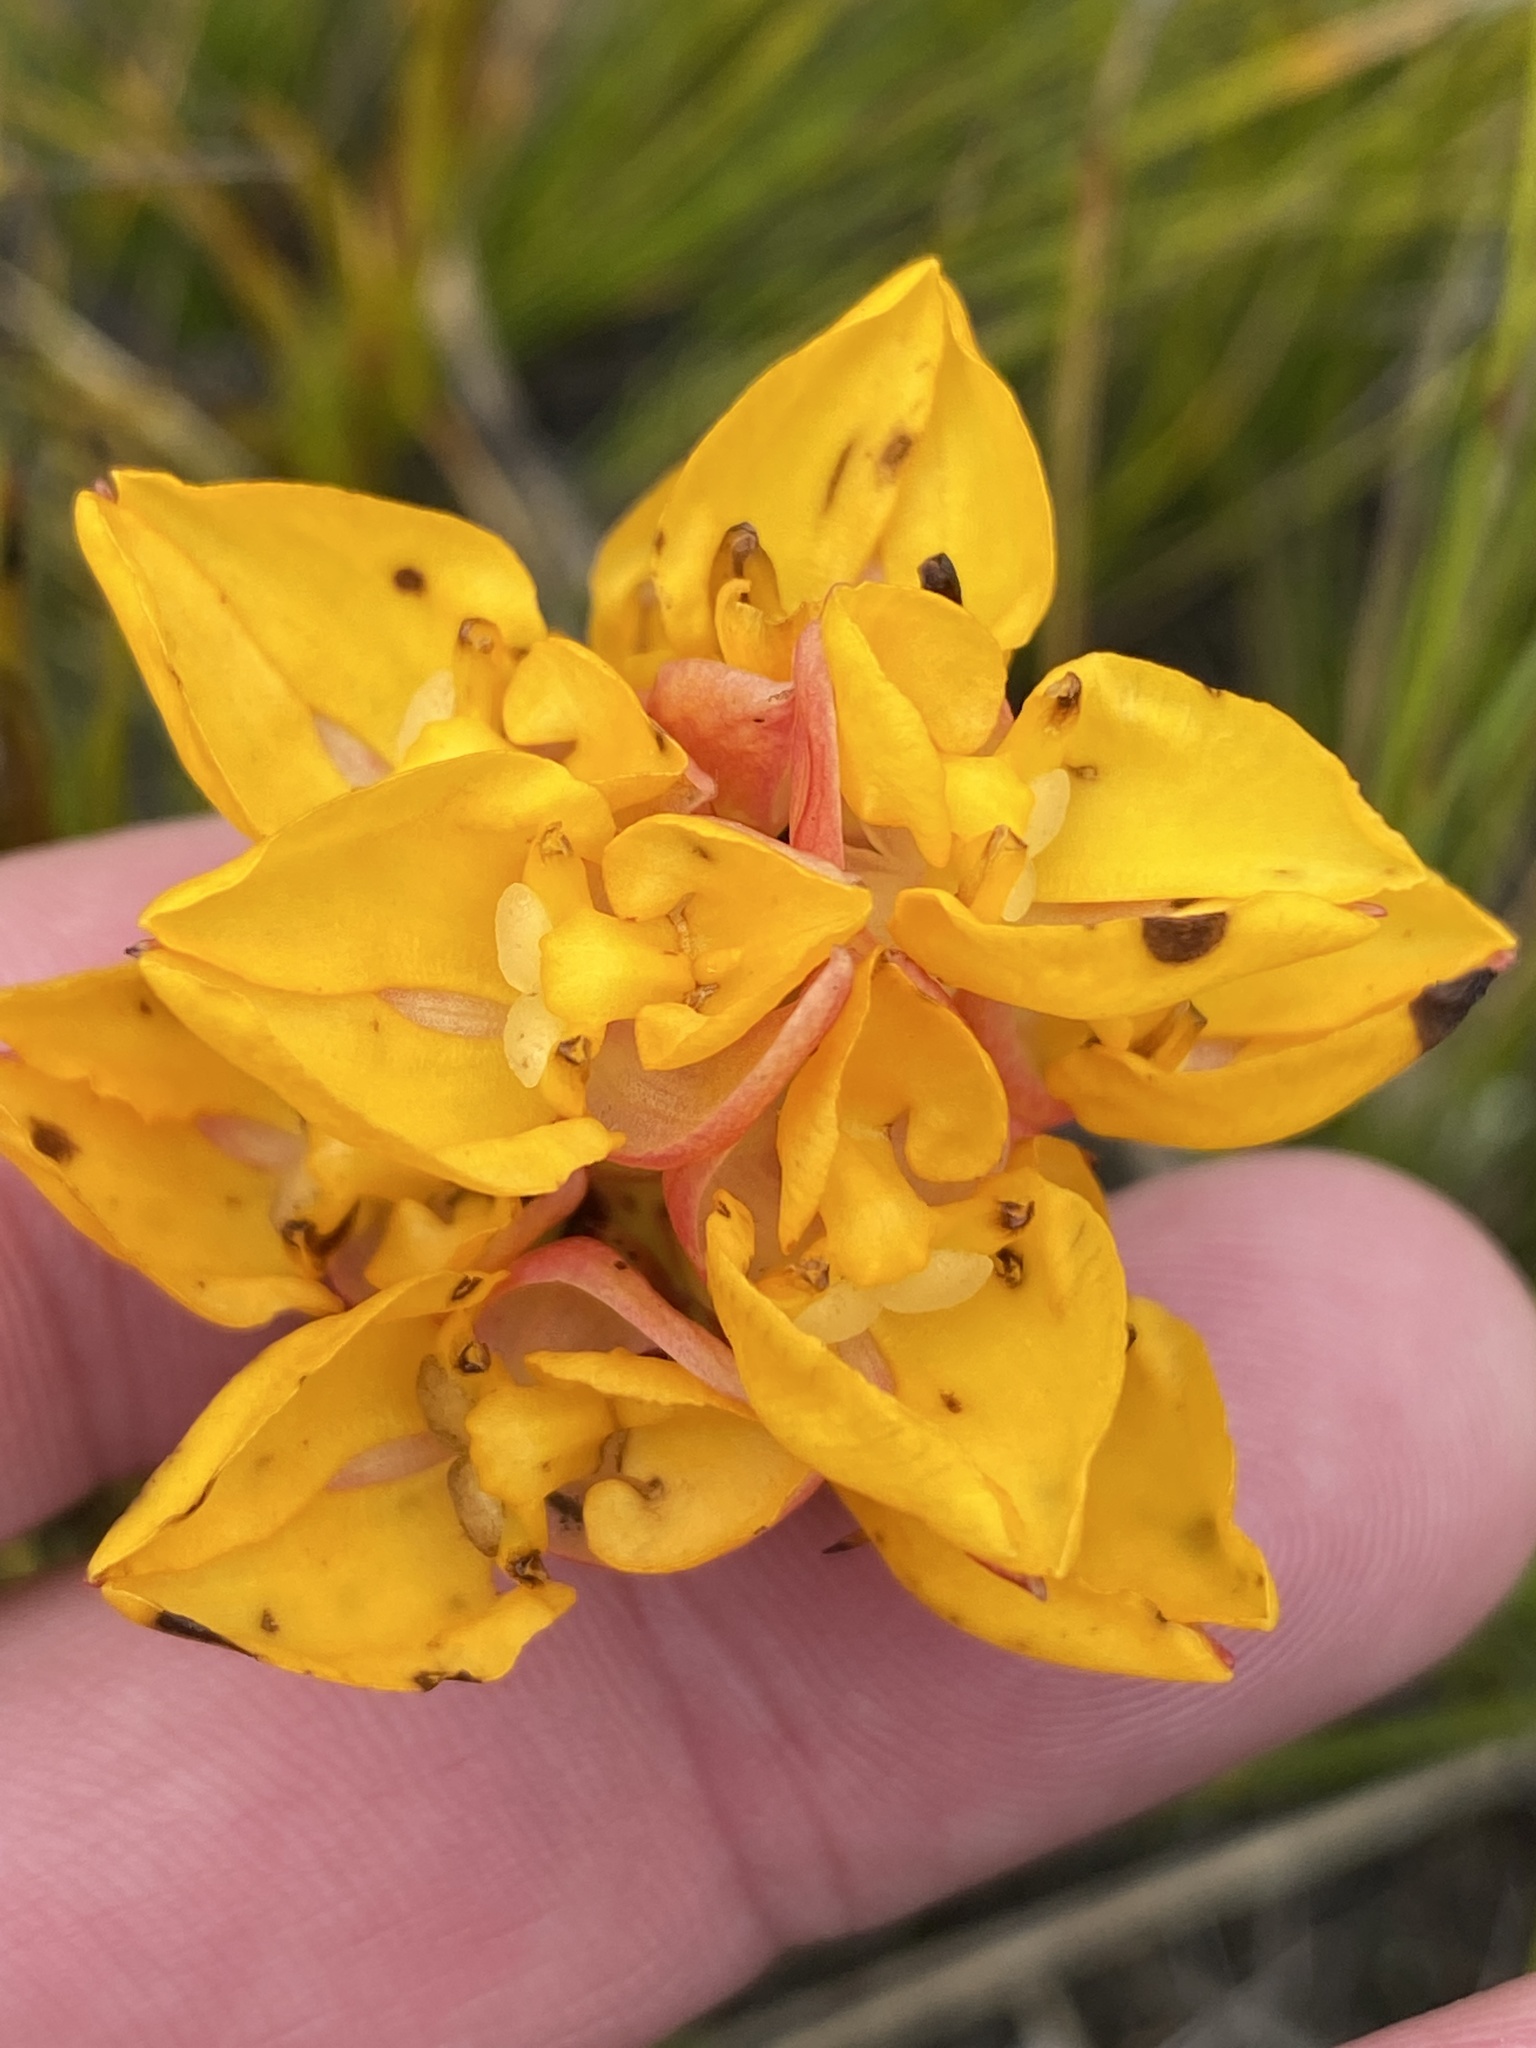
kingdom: Plantae
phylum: Tracheophyta
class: Liliopsida
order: Asparagales
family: Orchidaceae
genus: Ceratandra
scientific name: Ceratandra grandiflora
